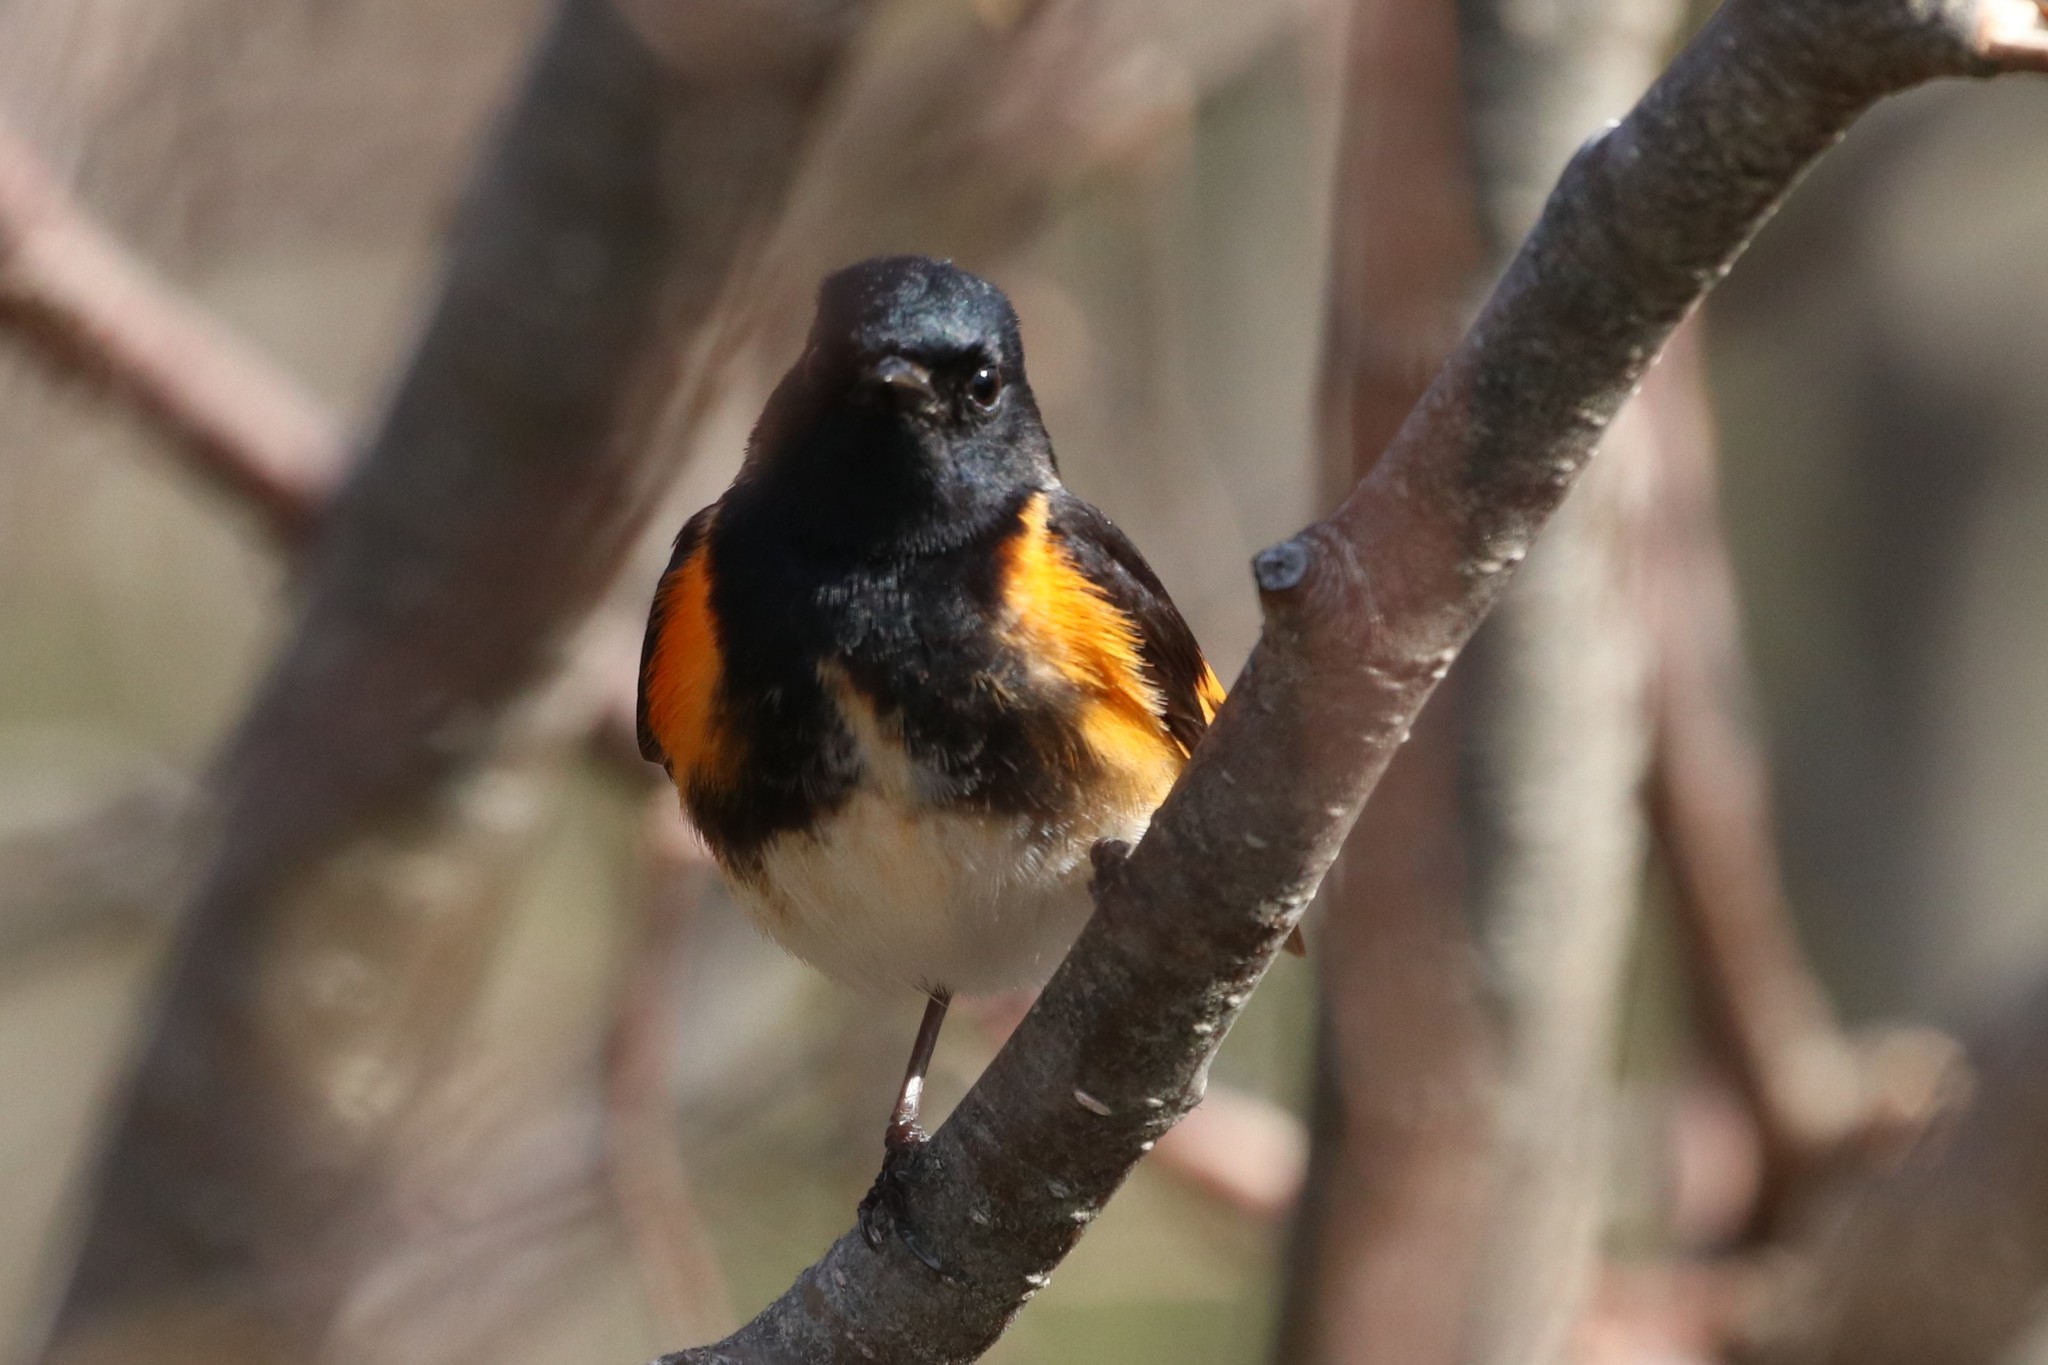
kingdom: Animalia
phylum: Chordata
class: Aves
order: Passeriformes
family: Parulidae
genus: Setophaga
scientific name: Setophaga ruticilla
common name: American redstart
